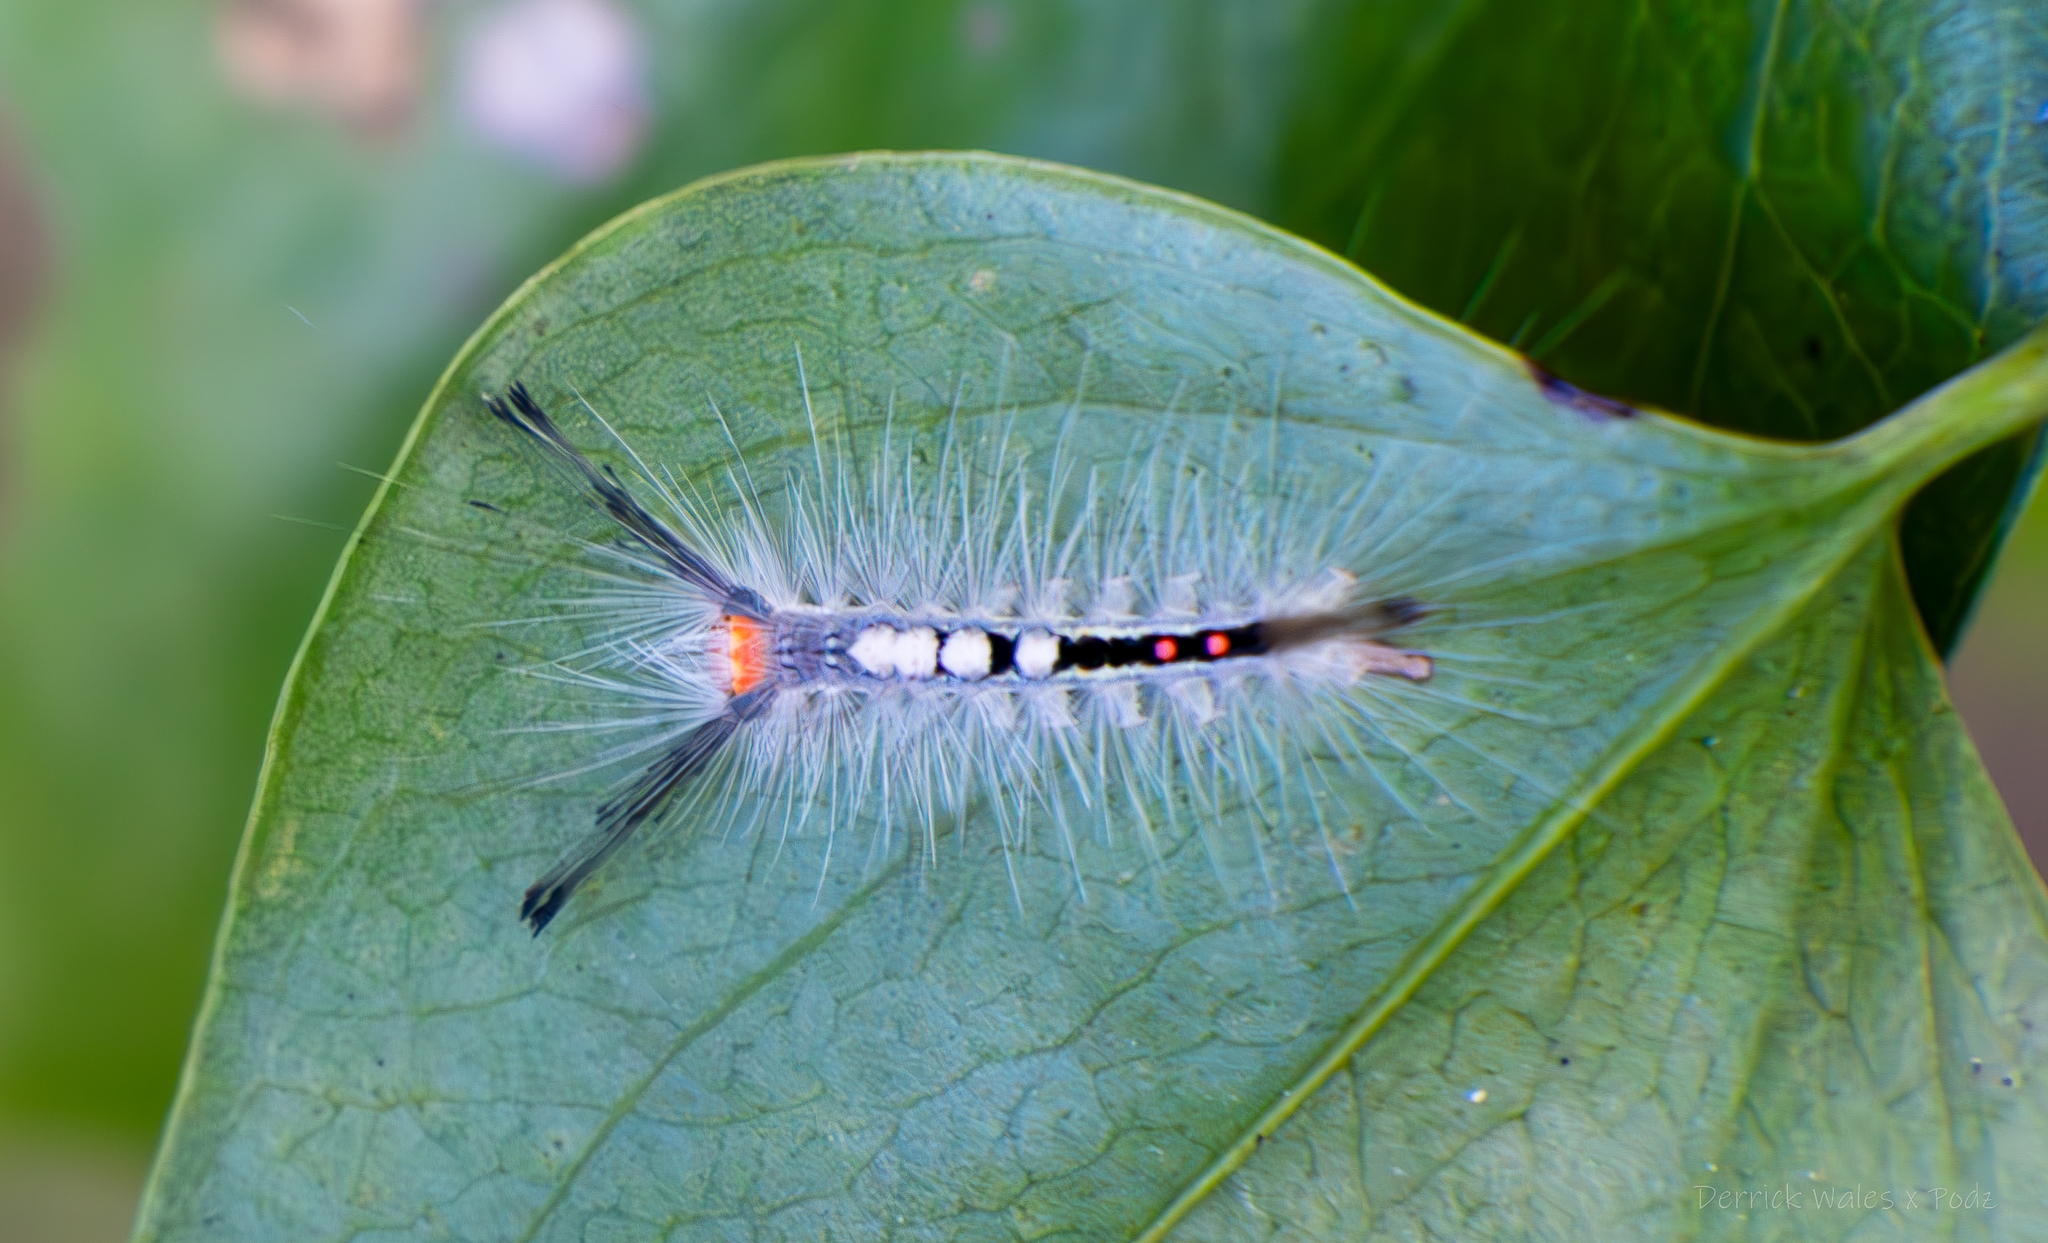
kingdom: Animalia
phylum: Arthropoda
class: Insecta
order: Lepidoptera
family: Erebidae
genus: Orgyia
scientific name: Orgyia leucostigma
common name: White-marked tussock moth
